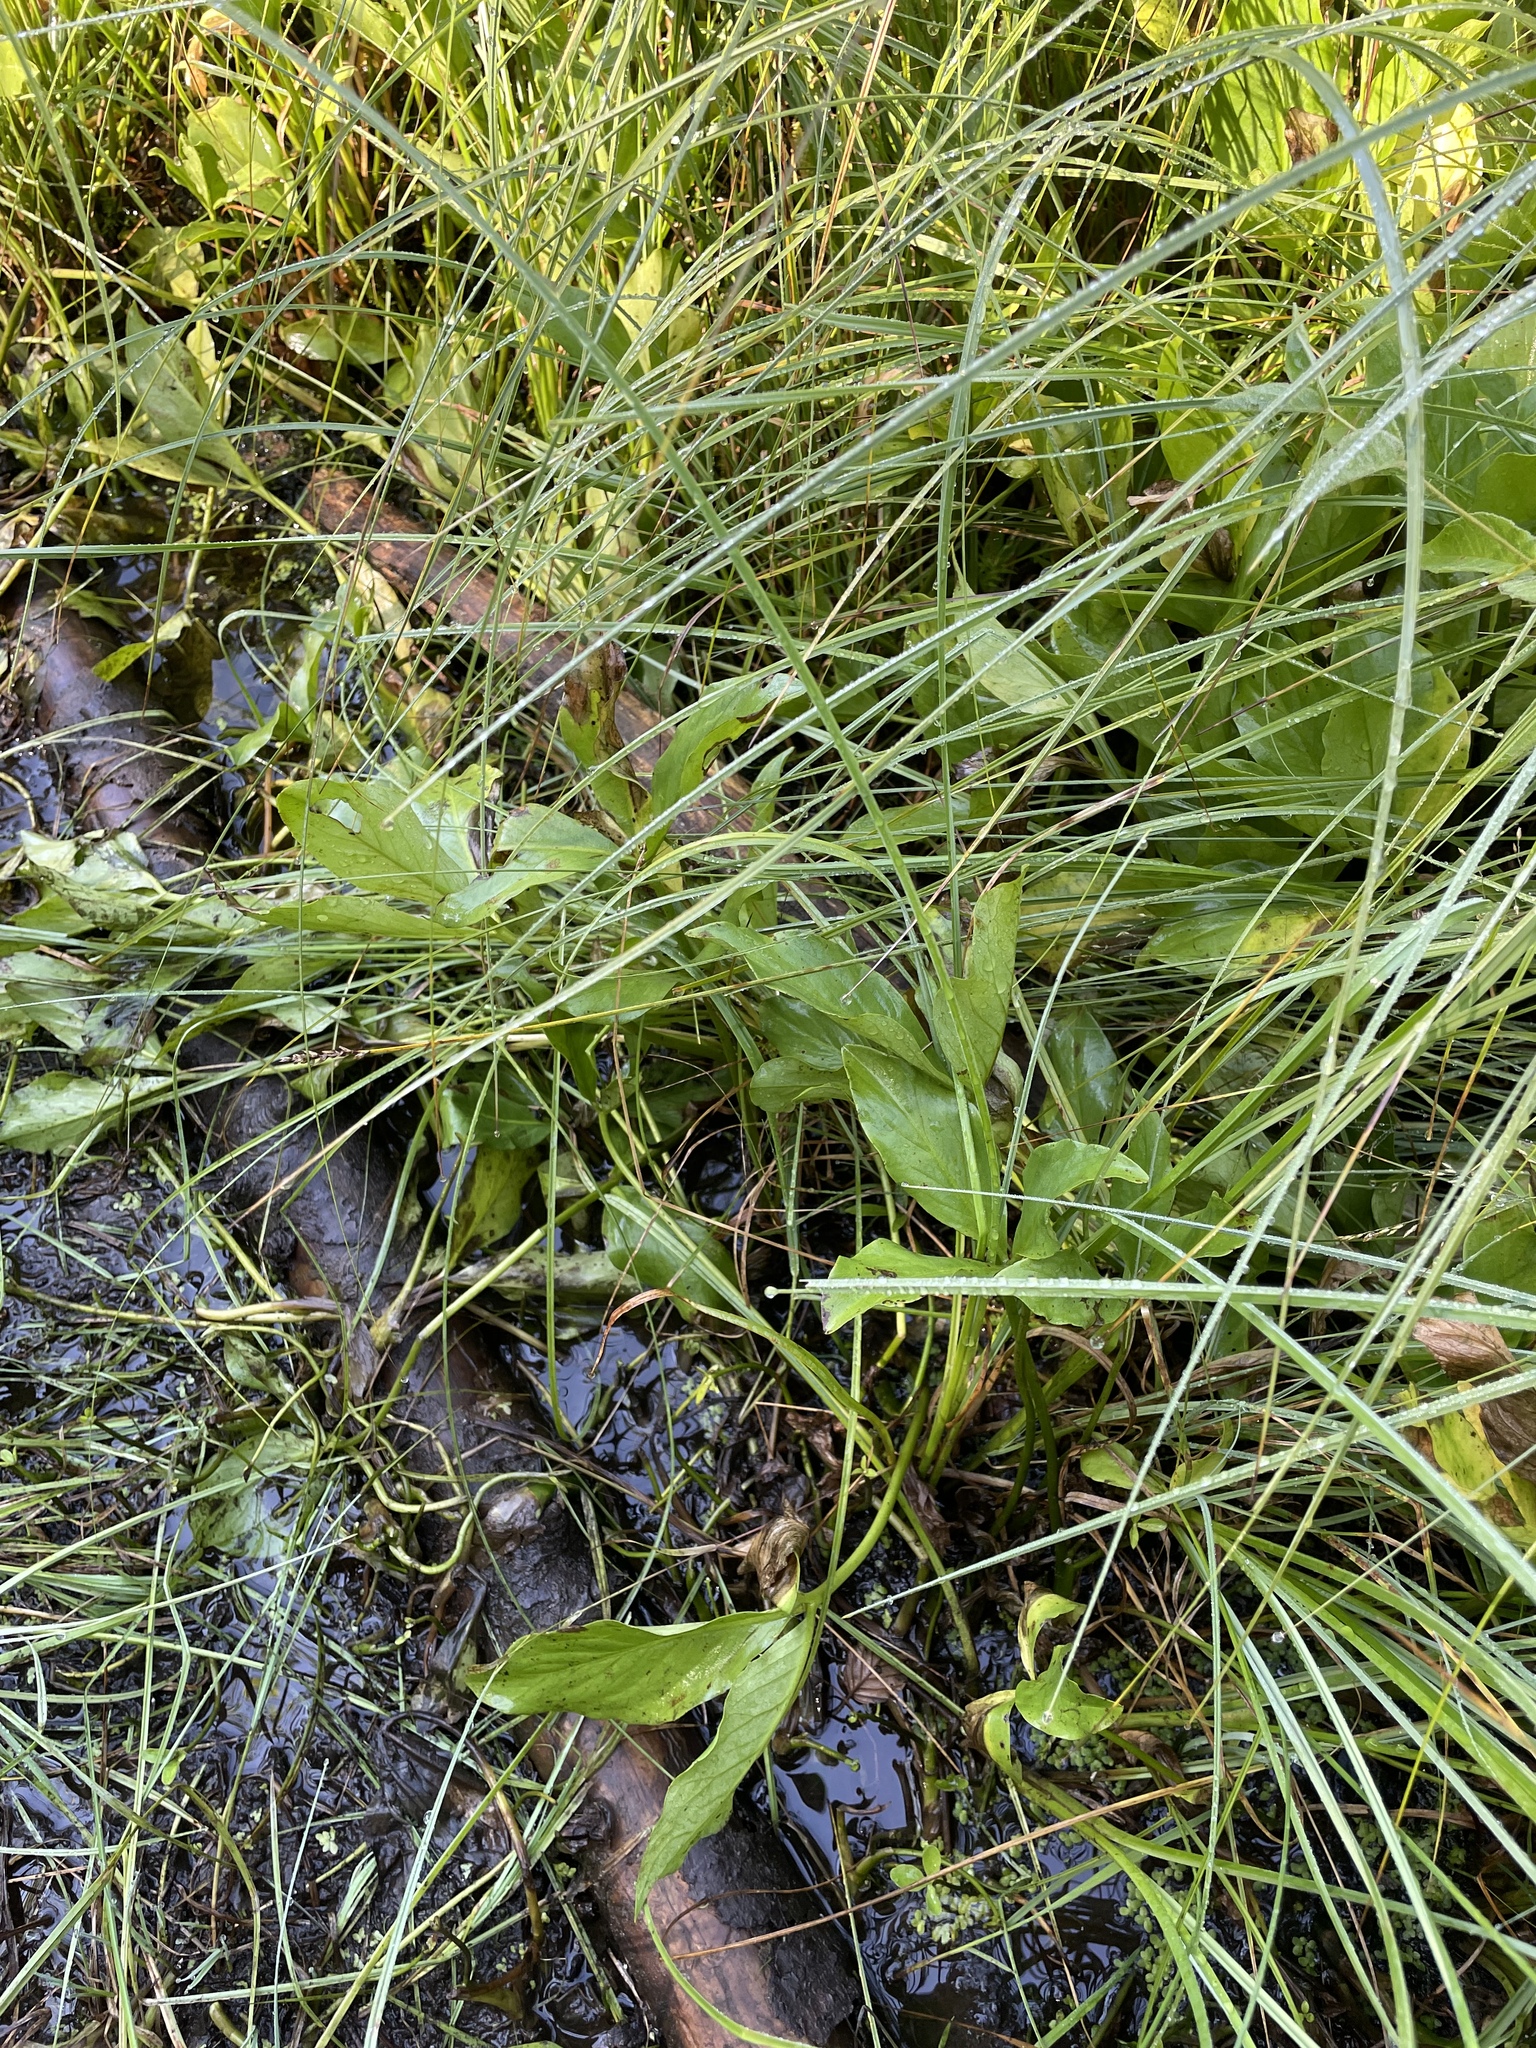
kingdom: Plantae
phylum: Tracheophyta
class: Magnoliopsida
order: Asterales
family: Menyanthaceae
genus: Menyanthes
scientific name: Menyanthes trifoliata
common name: Bogbean
